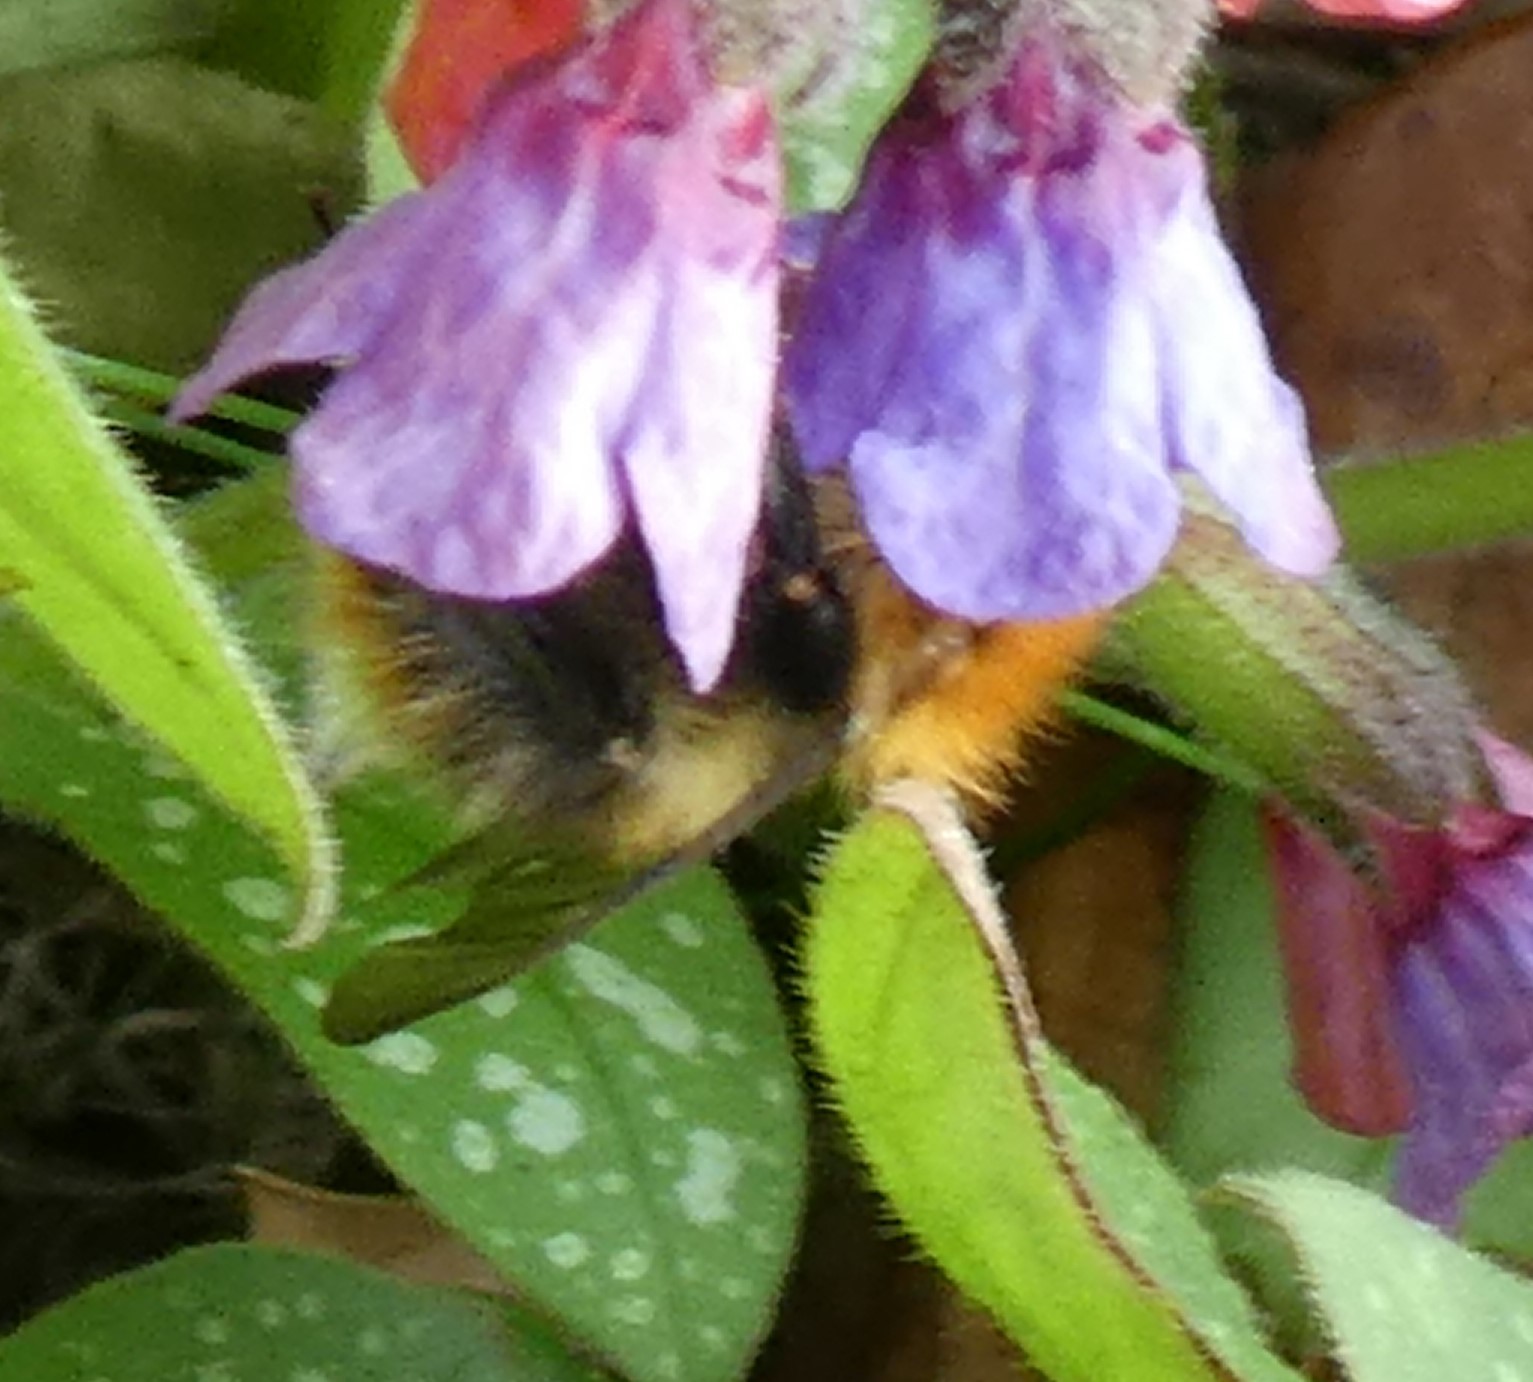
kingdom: Animalia
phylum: Arthropoda
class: Insecta
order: Hymenoptera
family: Apidae
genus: Bombus
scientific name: Bombus pascuorum
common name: Common carder bee
